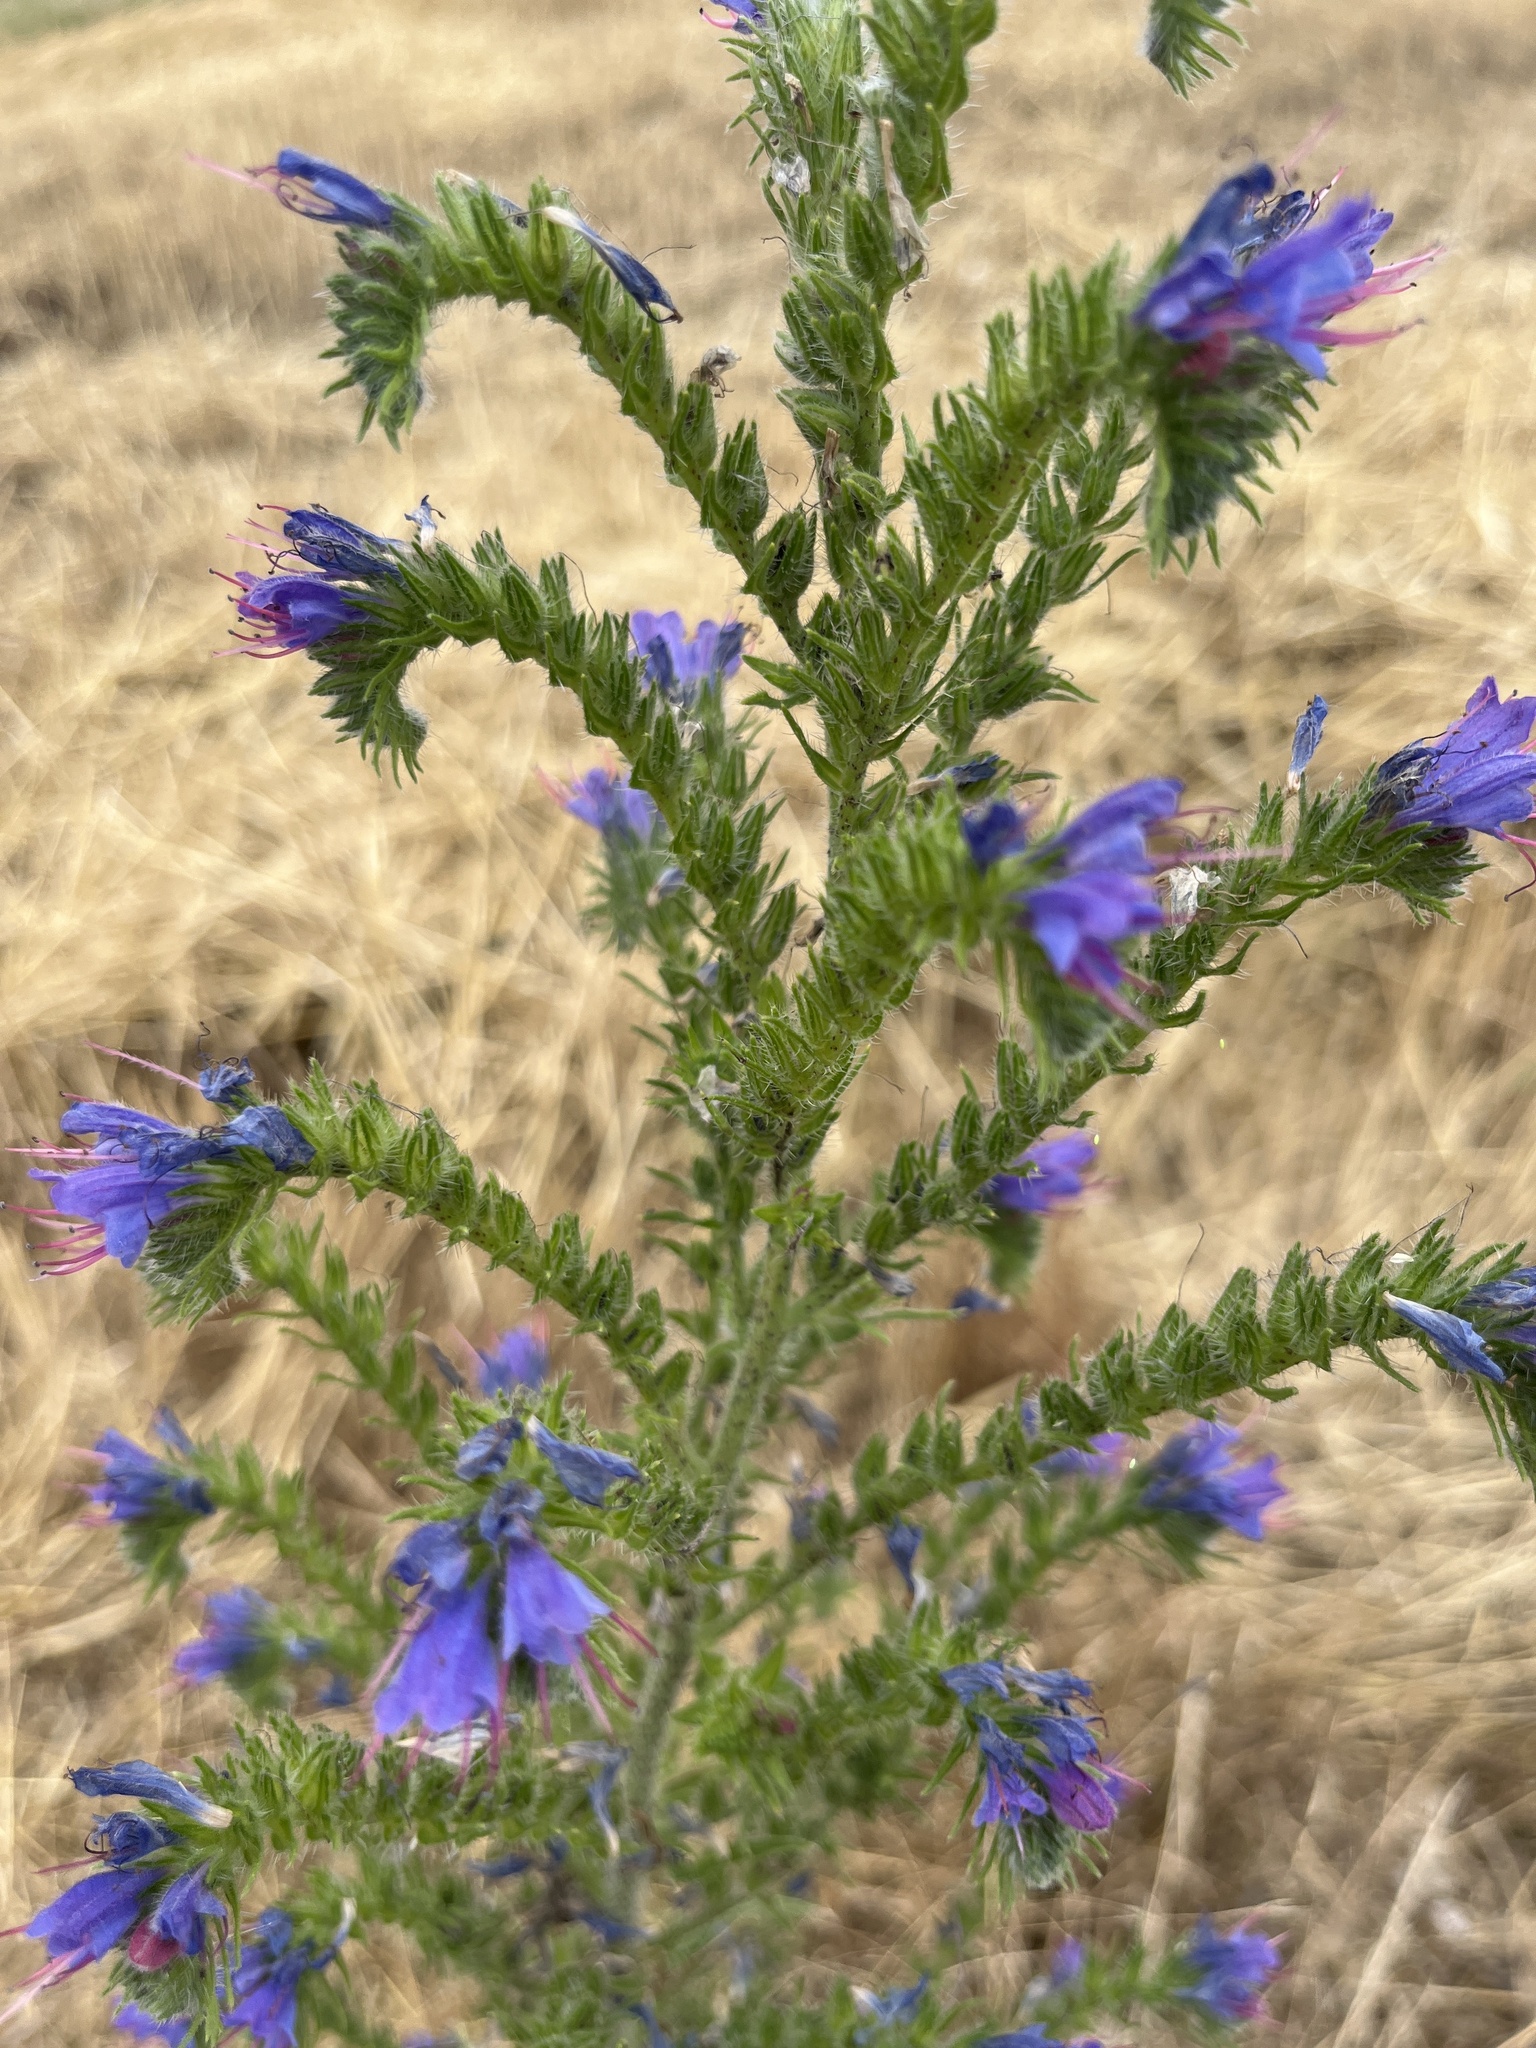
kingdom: Plantae
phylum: Tracheophyta
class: Magnoliopsida
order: Boraginales
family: Boraginaceae
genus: Echium
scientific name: Echium vulgare
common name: Common viper's bugloss
